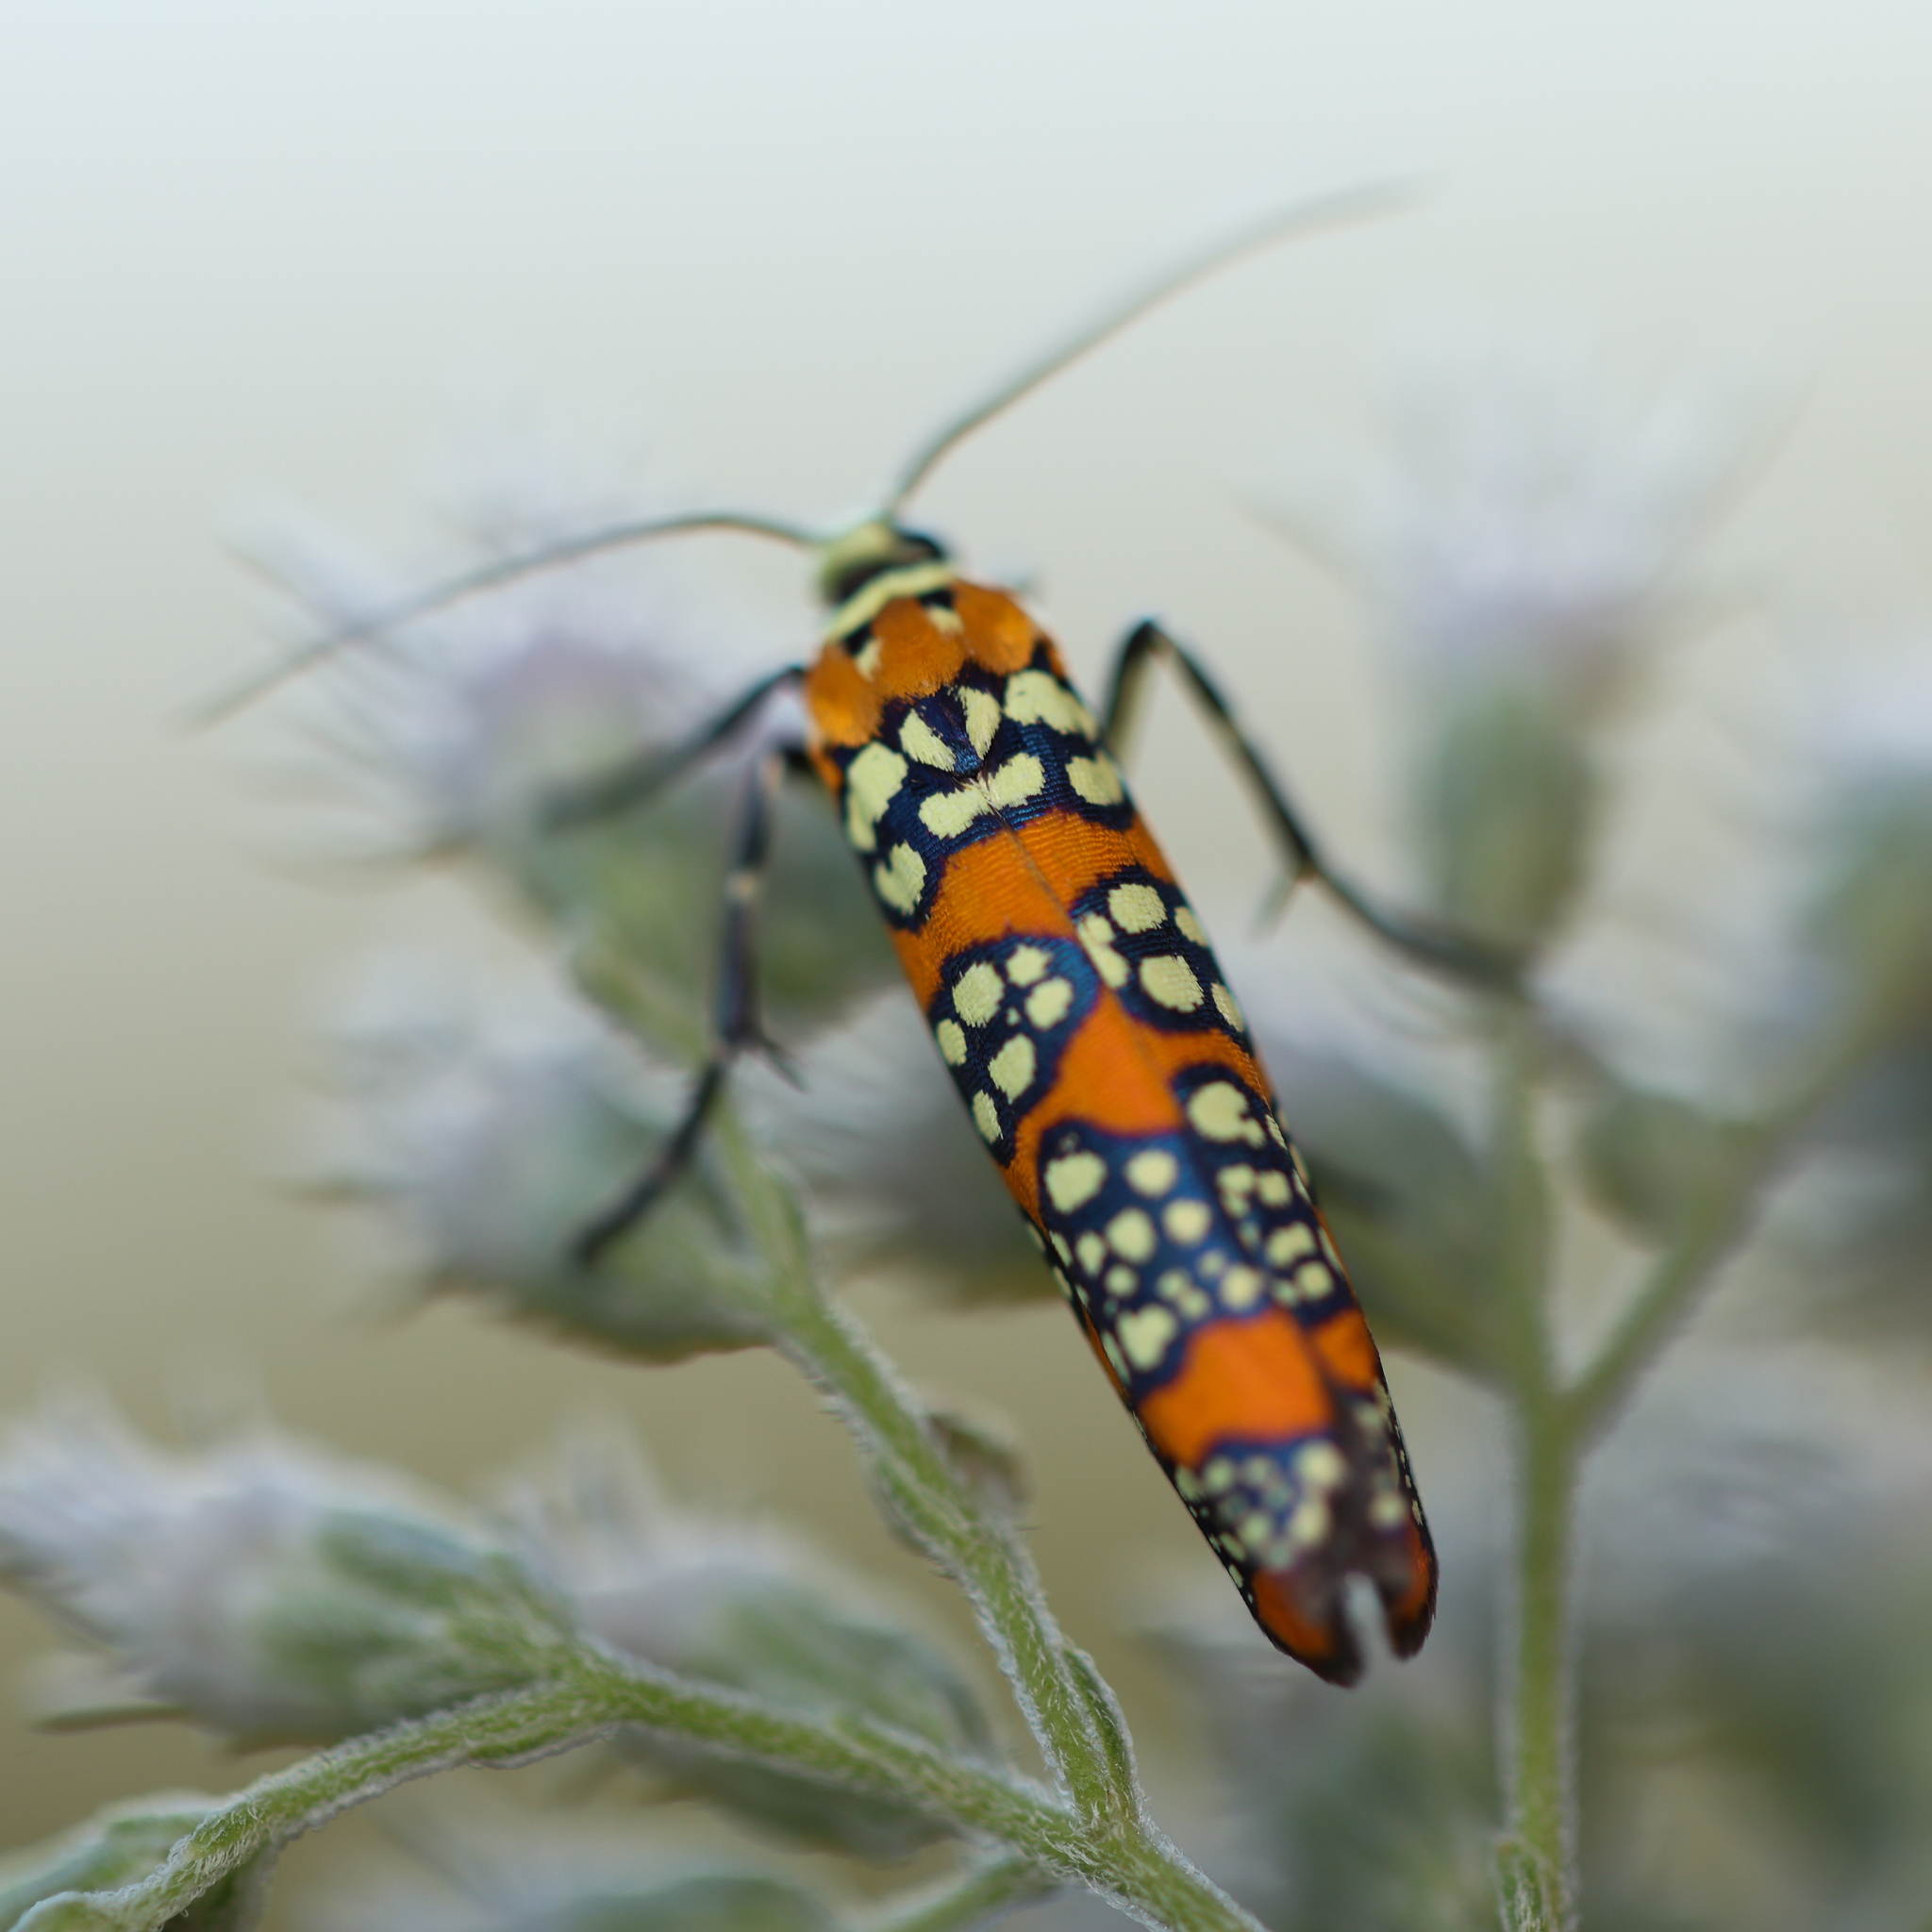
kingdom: Animalia
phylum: Arthropoda
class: Insecta
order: Lepidoptera
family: Attevidae
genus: Atteva
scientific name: Atteva punctella
